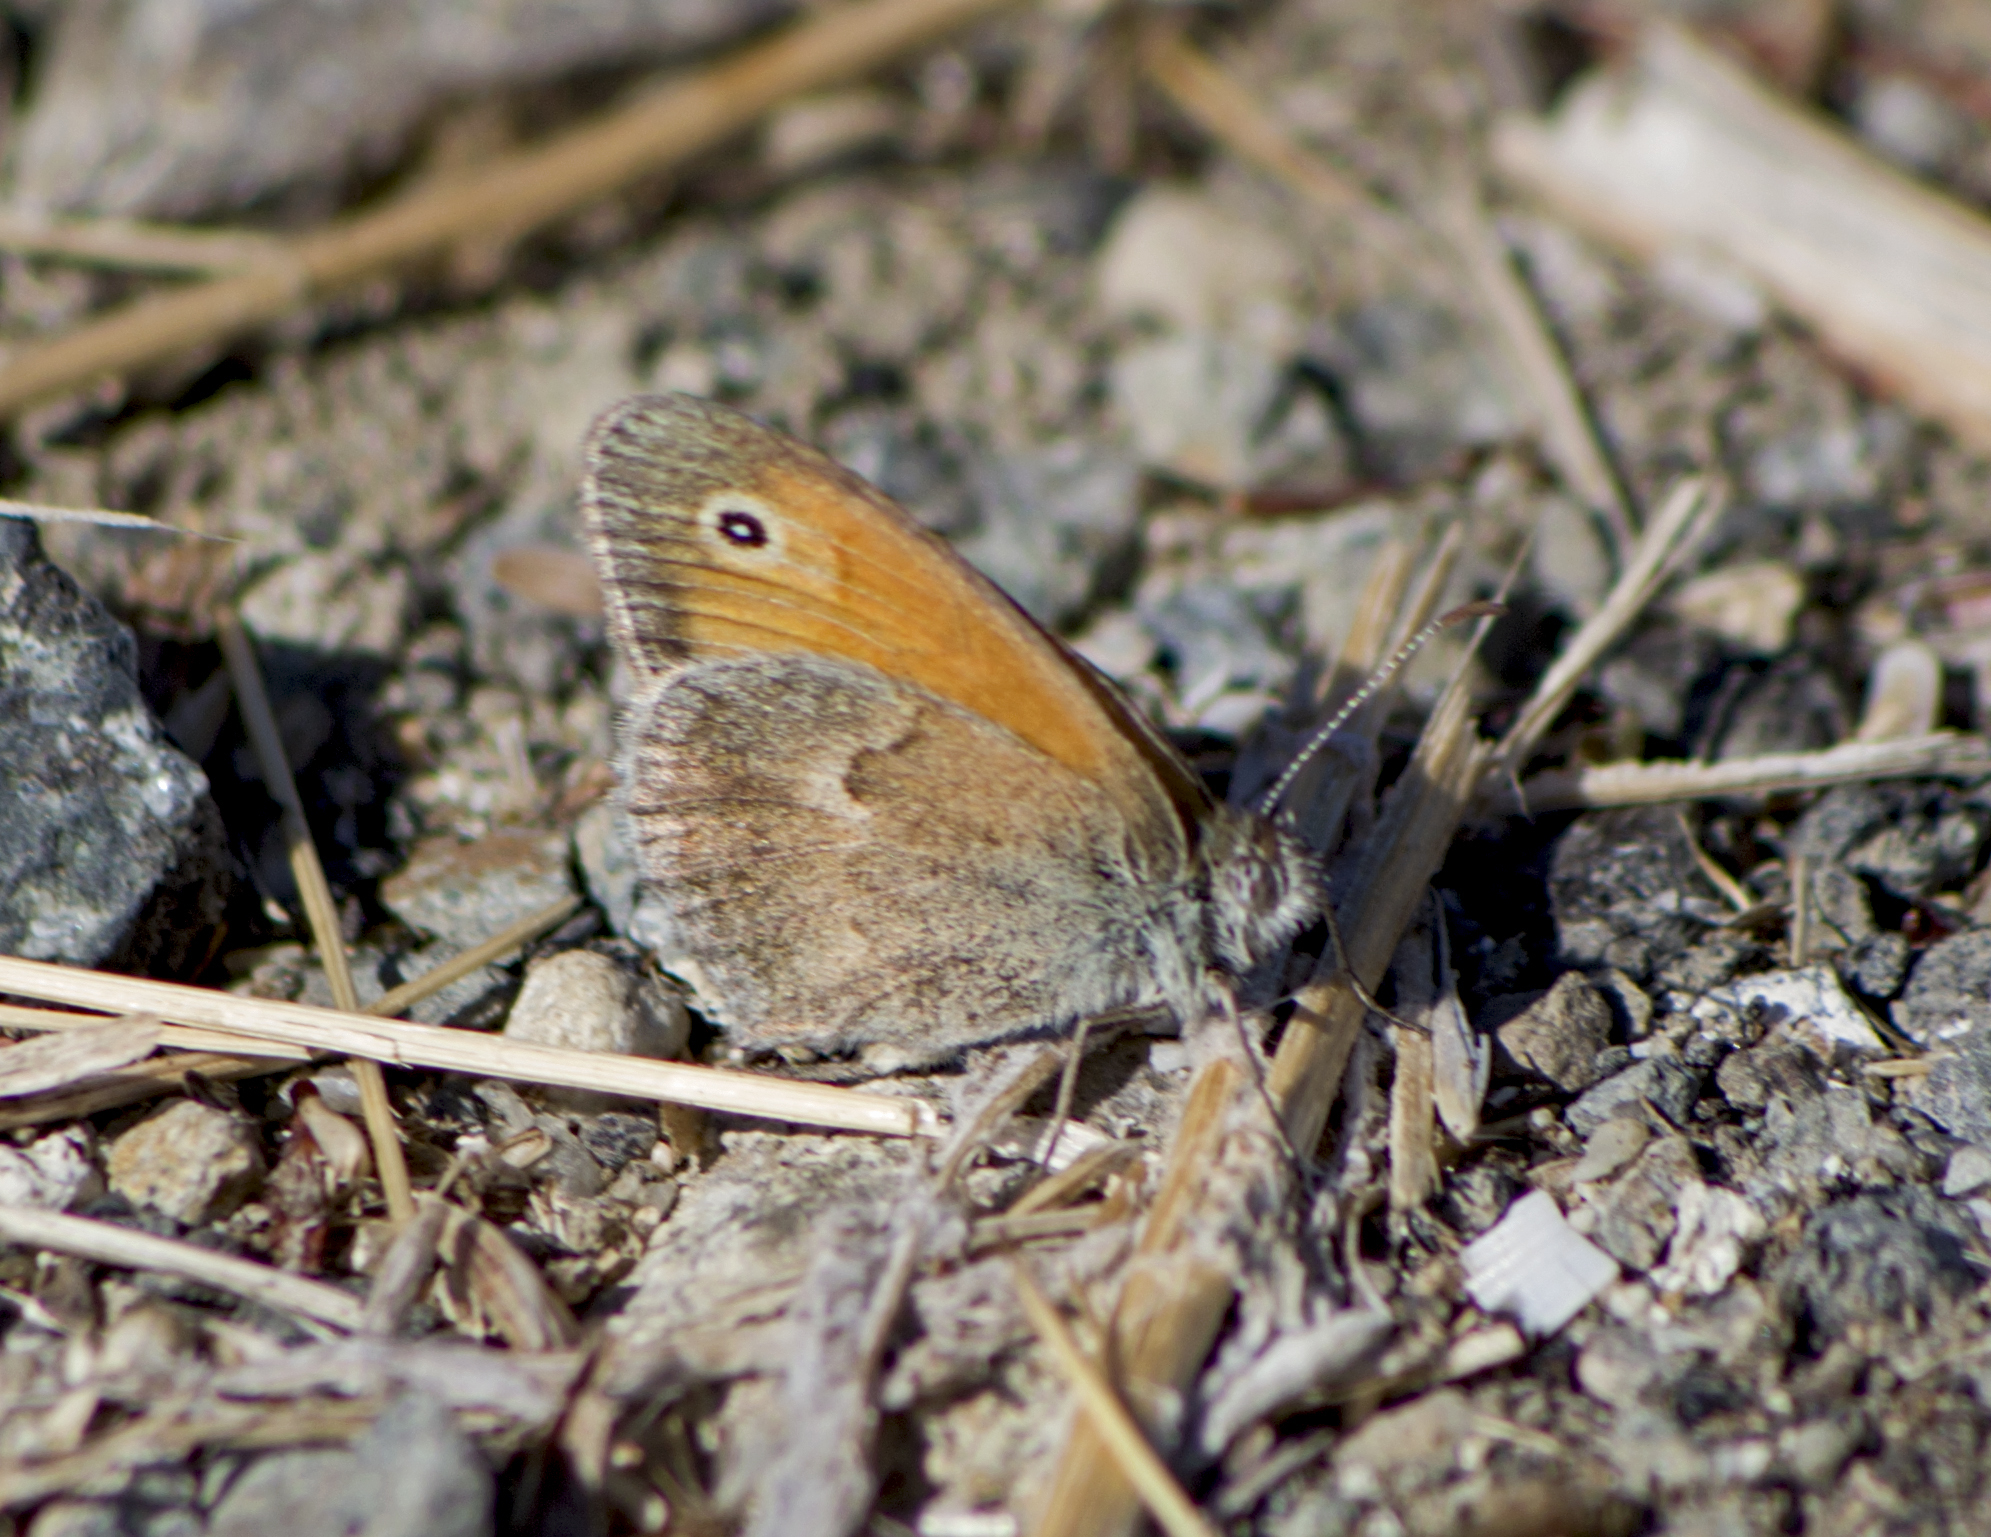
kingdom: Animalia
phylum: Arthropoda
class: Insecta
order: Lepidoptera
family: Nymphalidae
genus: Coenonympha
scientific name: Coenonympha pamphilus
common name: Small heath
